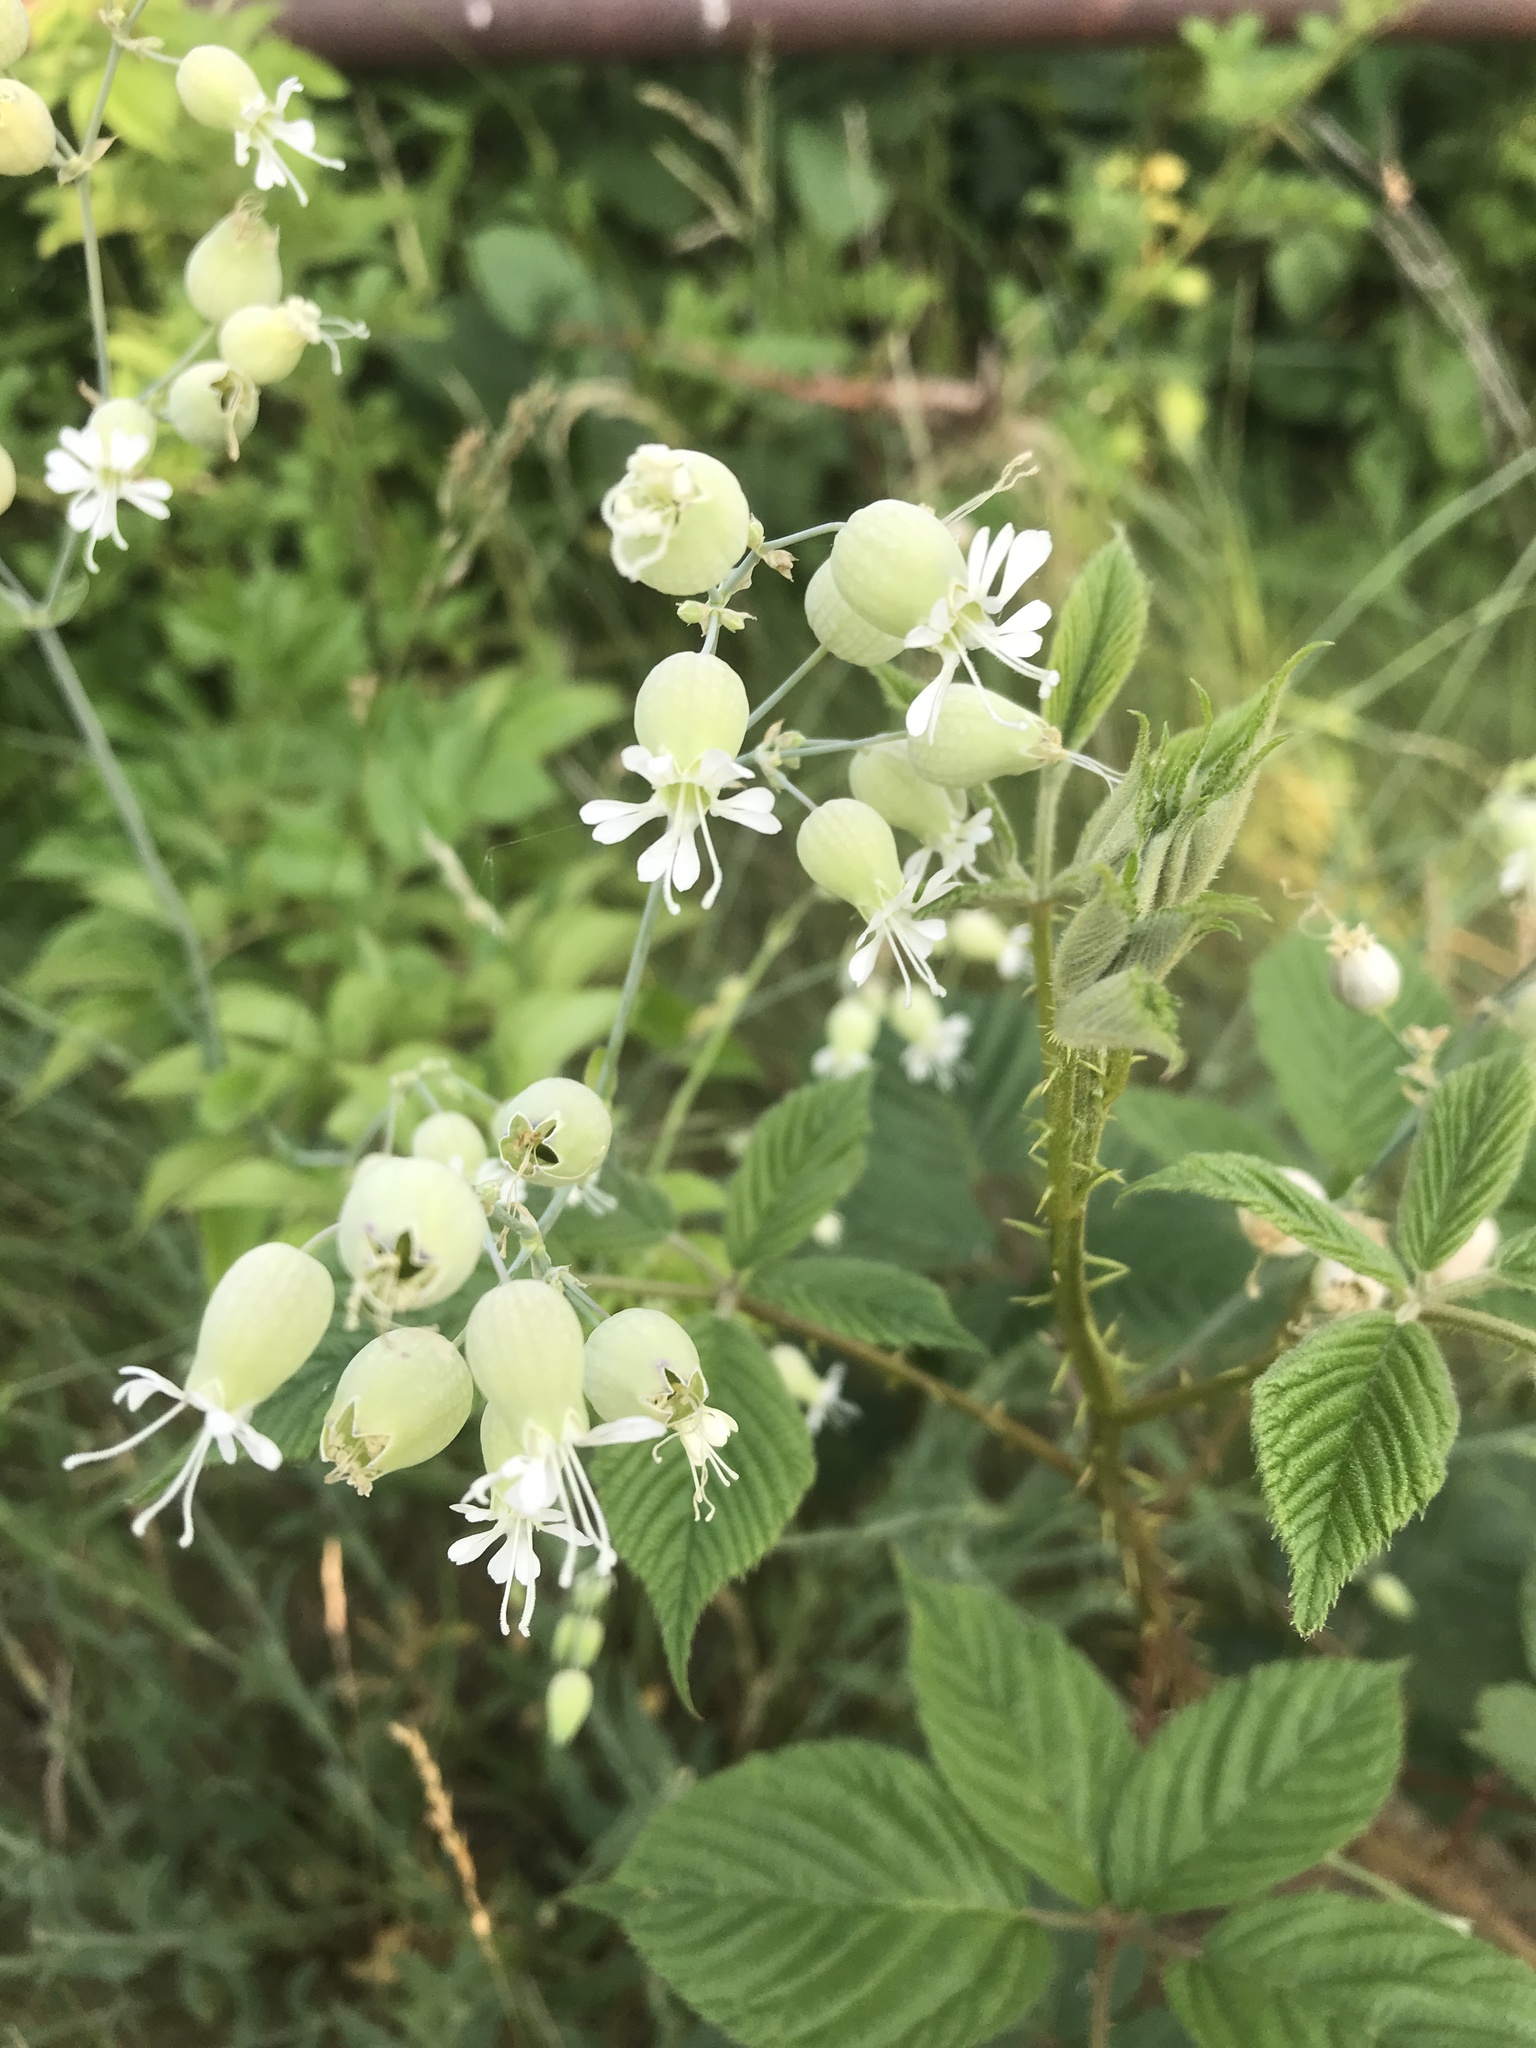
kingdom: Plantae
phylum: Tracheophyta
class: Magnoliopsida
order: Caryophyllales
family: Caryophyllaceae
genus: Silene
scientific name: Silene vulgaris
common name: Bladder campion
